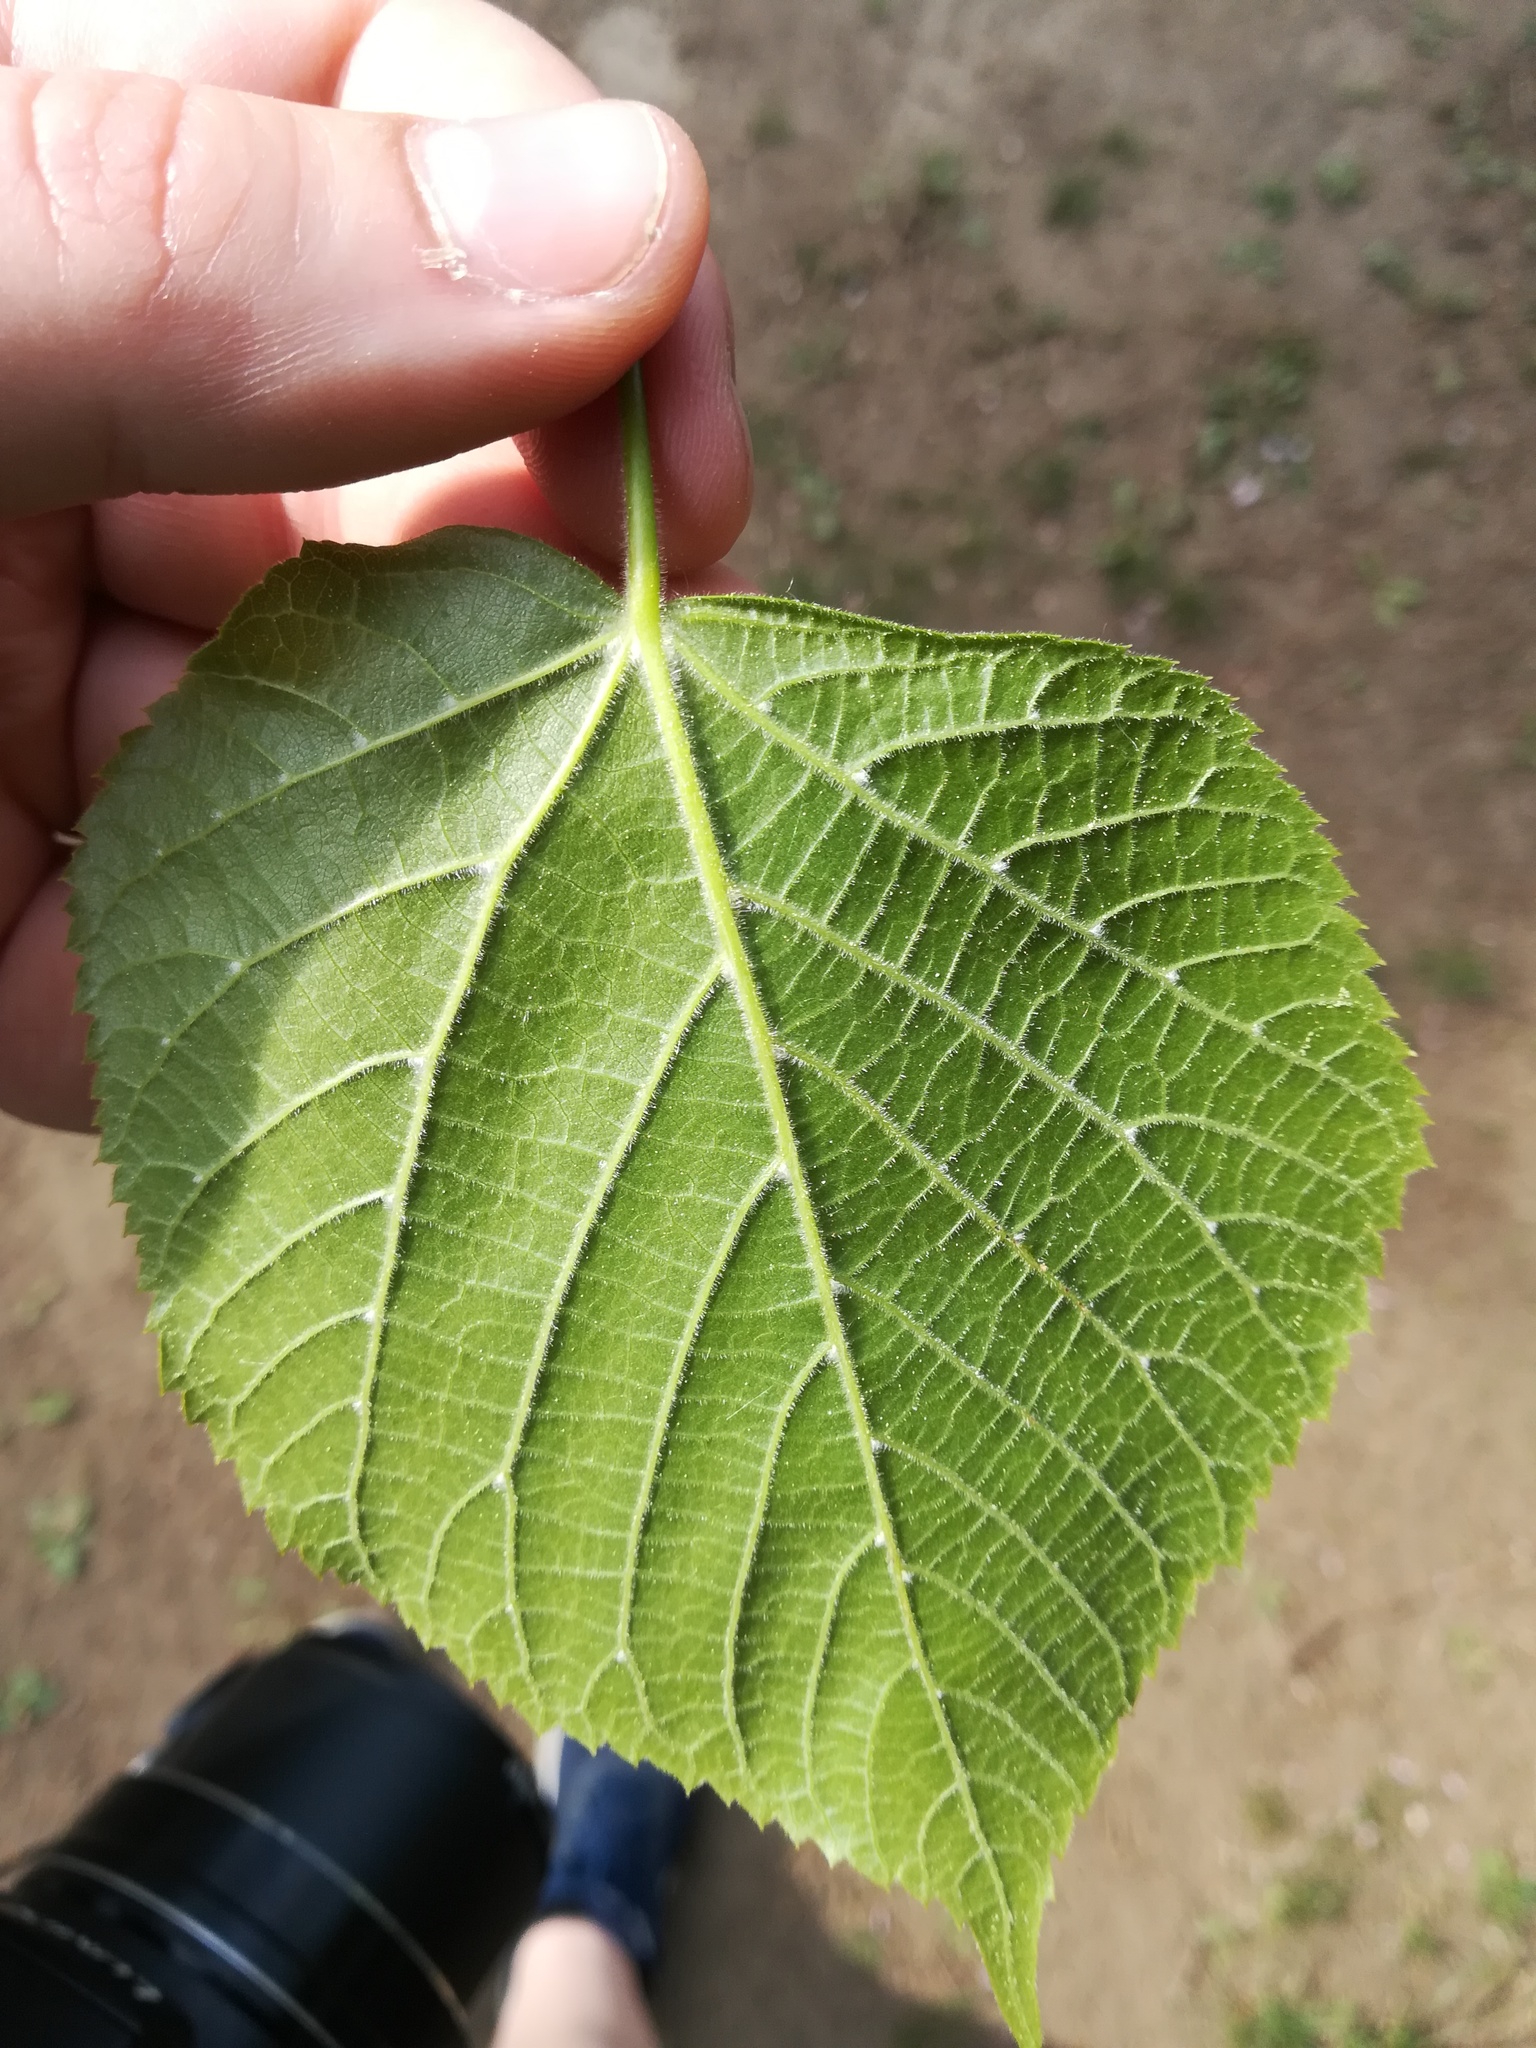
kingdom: Plantae
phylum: Tracheophyta
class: Magnoliopsida
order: Malvales
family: Malvaceae
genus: Tilia
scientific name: Tilia platyphyllos
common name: Large-leaved lime
